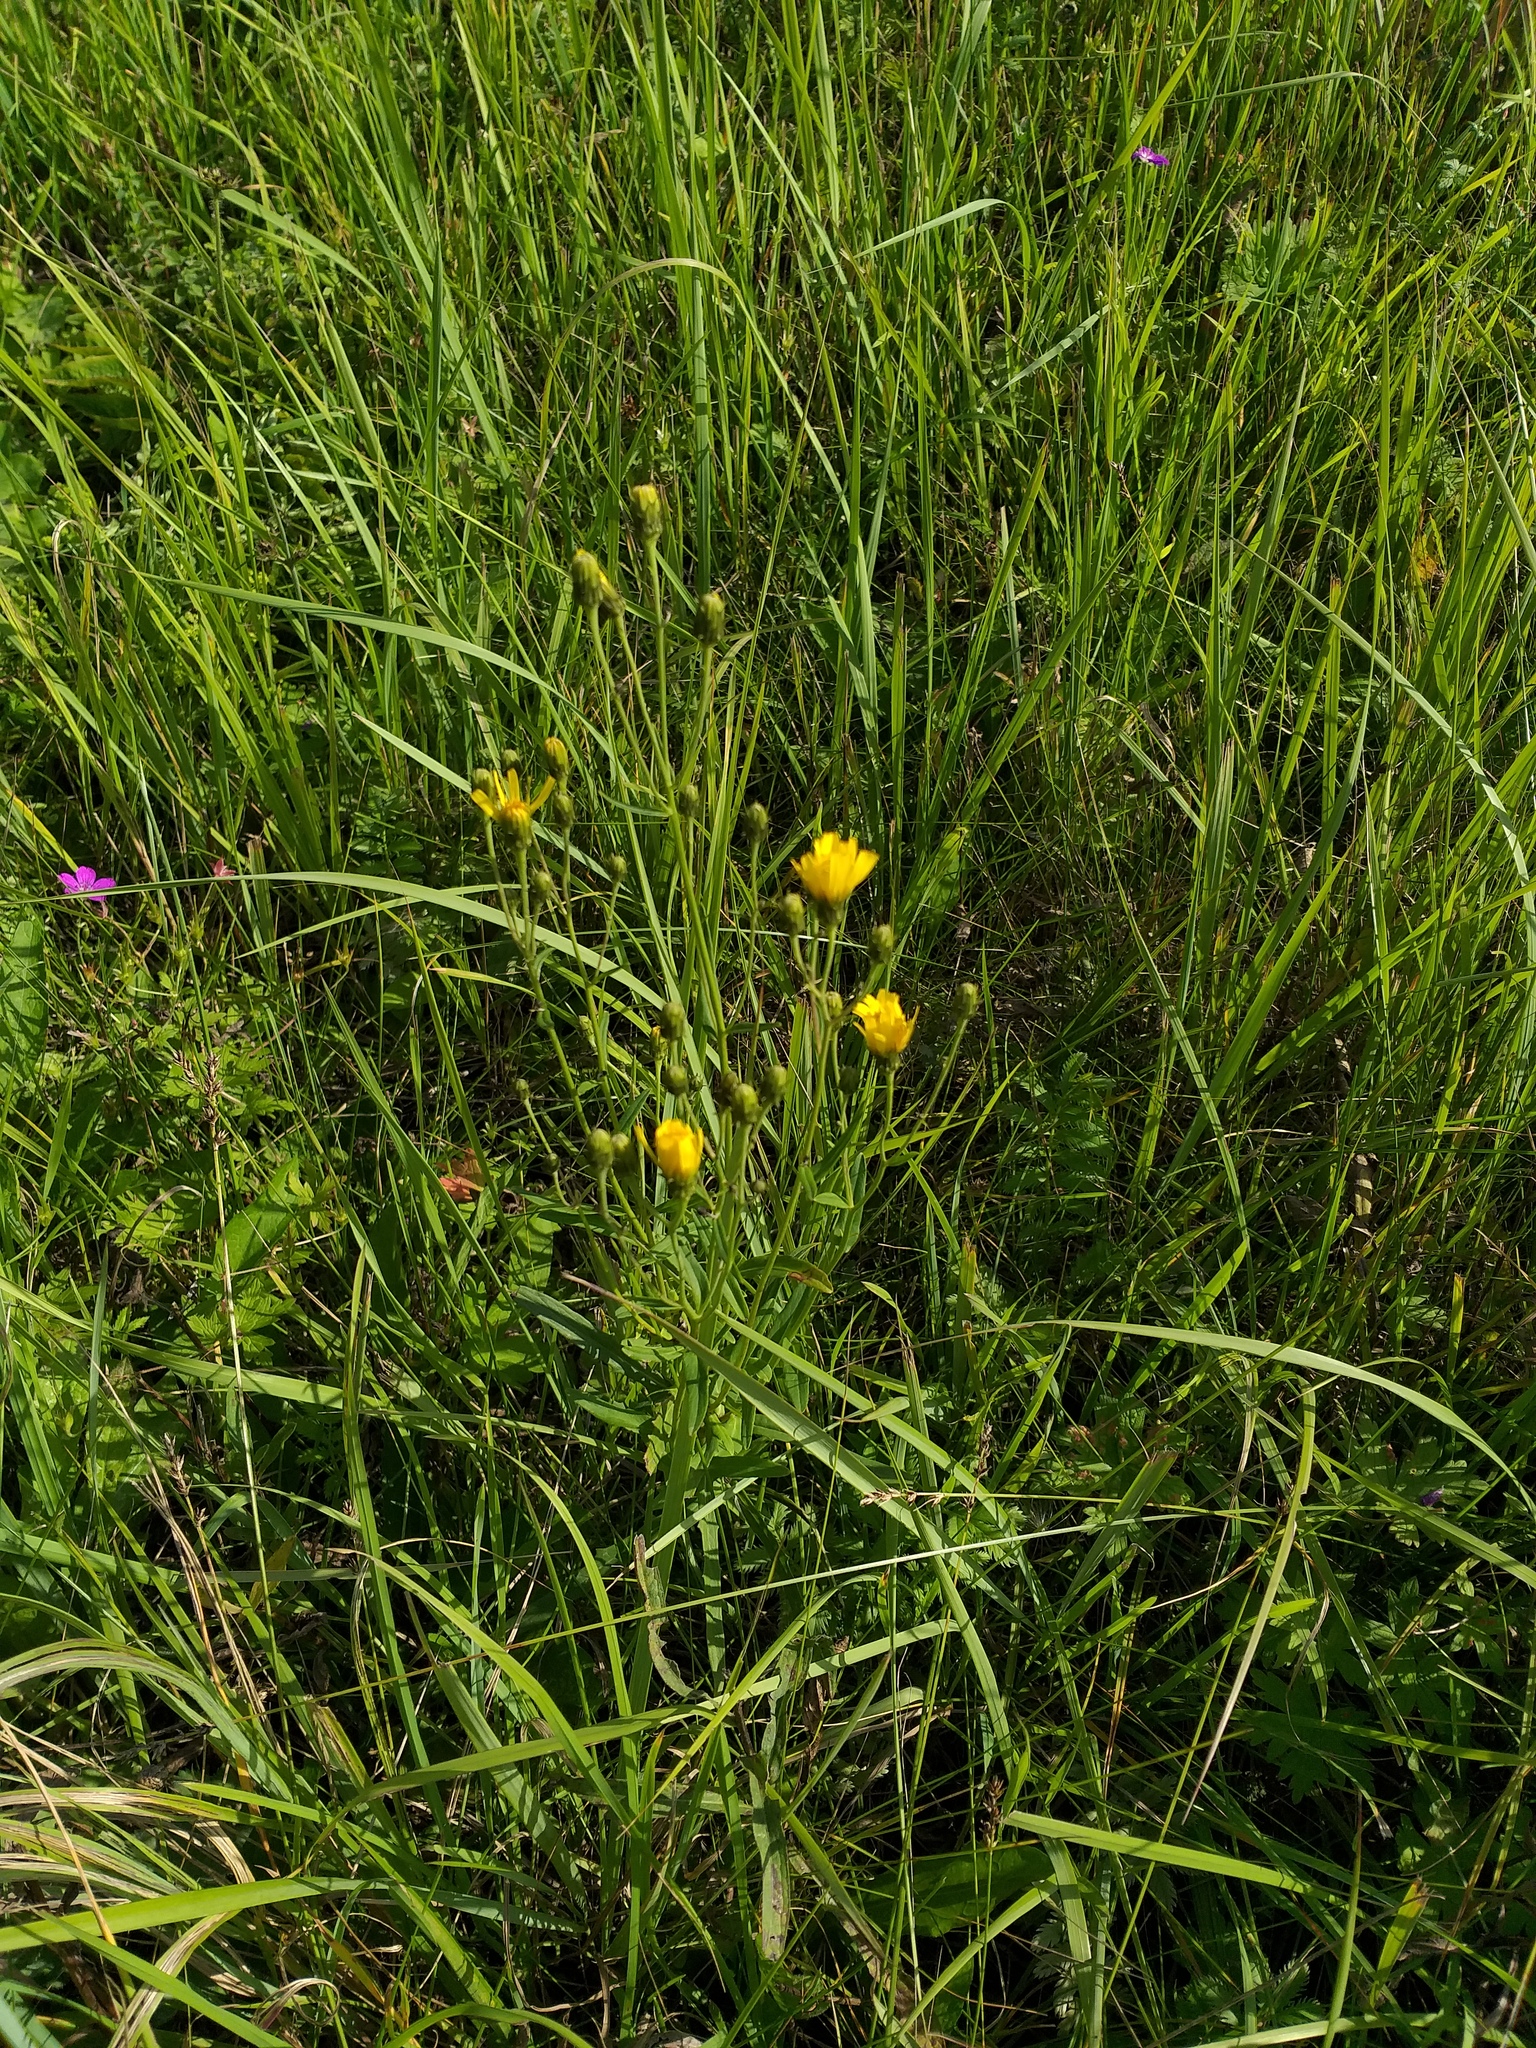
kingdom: Plantae
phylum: Tracheophyta
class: Magnoliopsida
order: Asterales
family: Asteraceae
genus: Hieracium
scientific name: Hieracium umbellatum
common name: Northern hawkweed
